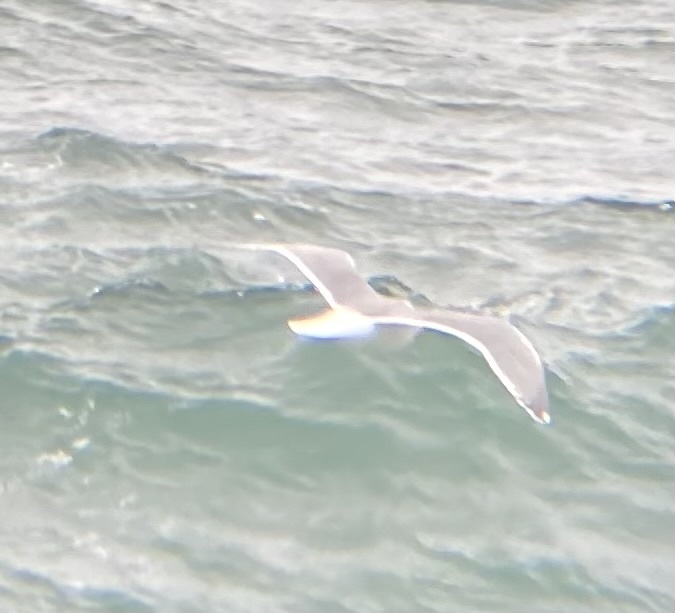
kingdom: Animalia
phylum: Chordata
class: Aves
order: Charadriiformes
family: Laridae
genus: Larus
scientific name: Larus glaucescens
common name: Glaucous-winged gull
